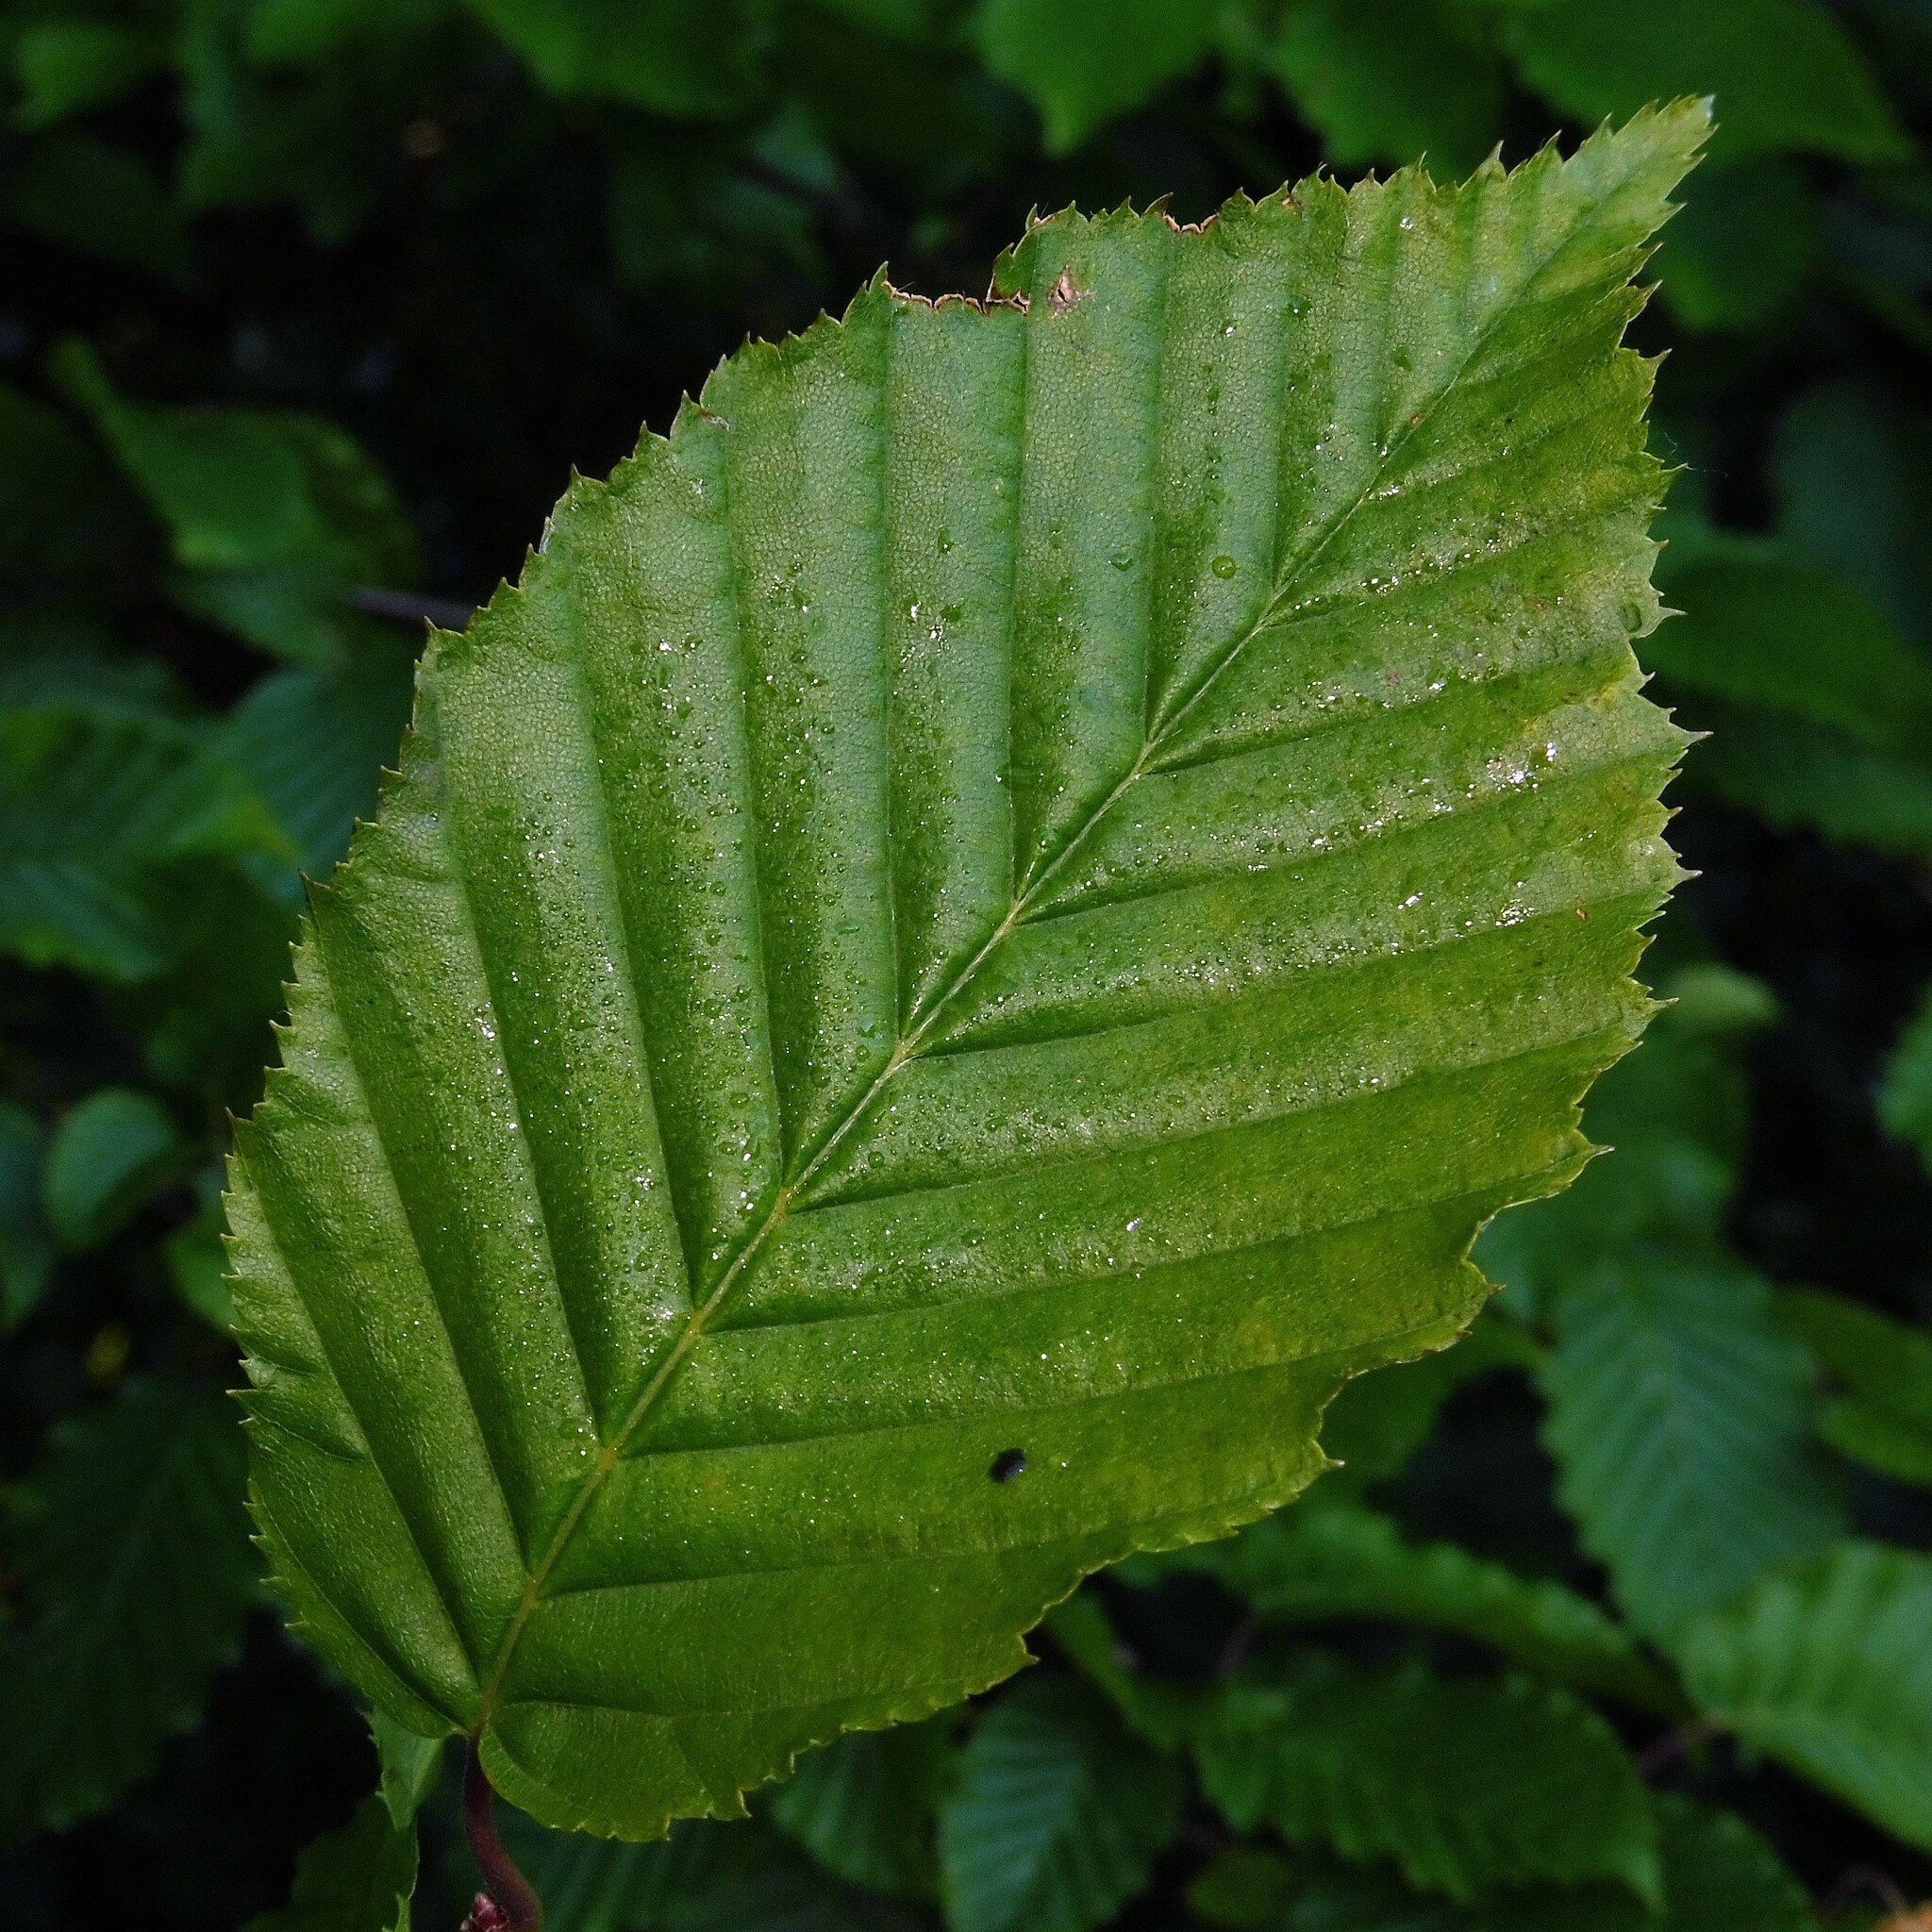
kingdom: Plantae
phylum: Tracheophyta
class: Magnoliopsida
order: Fagales
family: Betulaceae
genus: Carpinus
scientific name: Carpinus betulus
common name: Hornbeam
